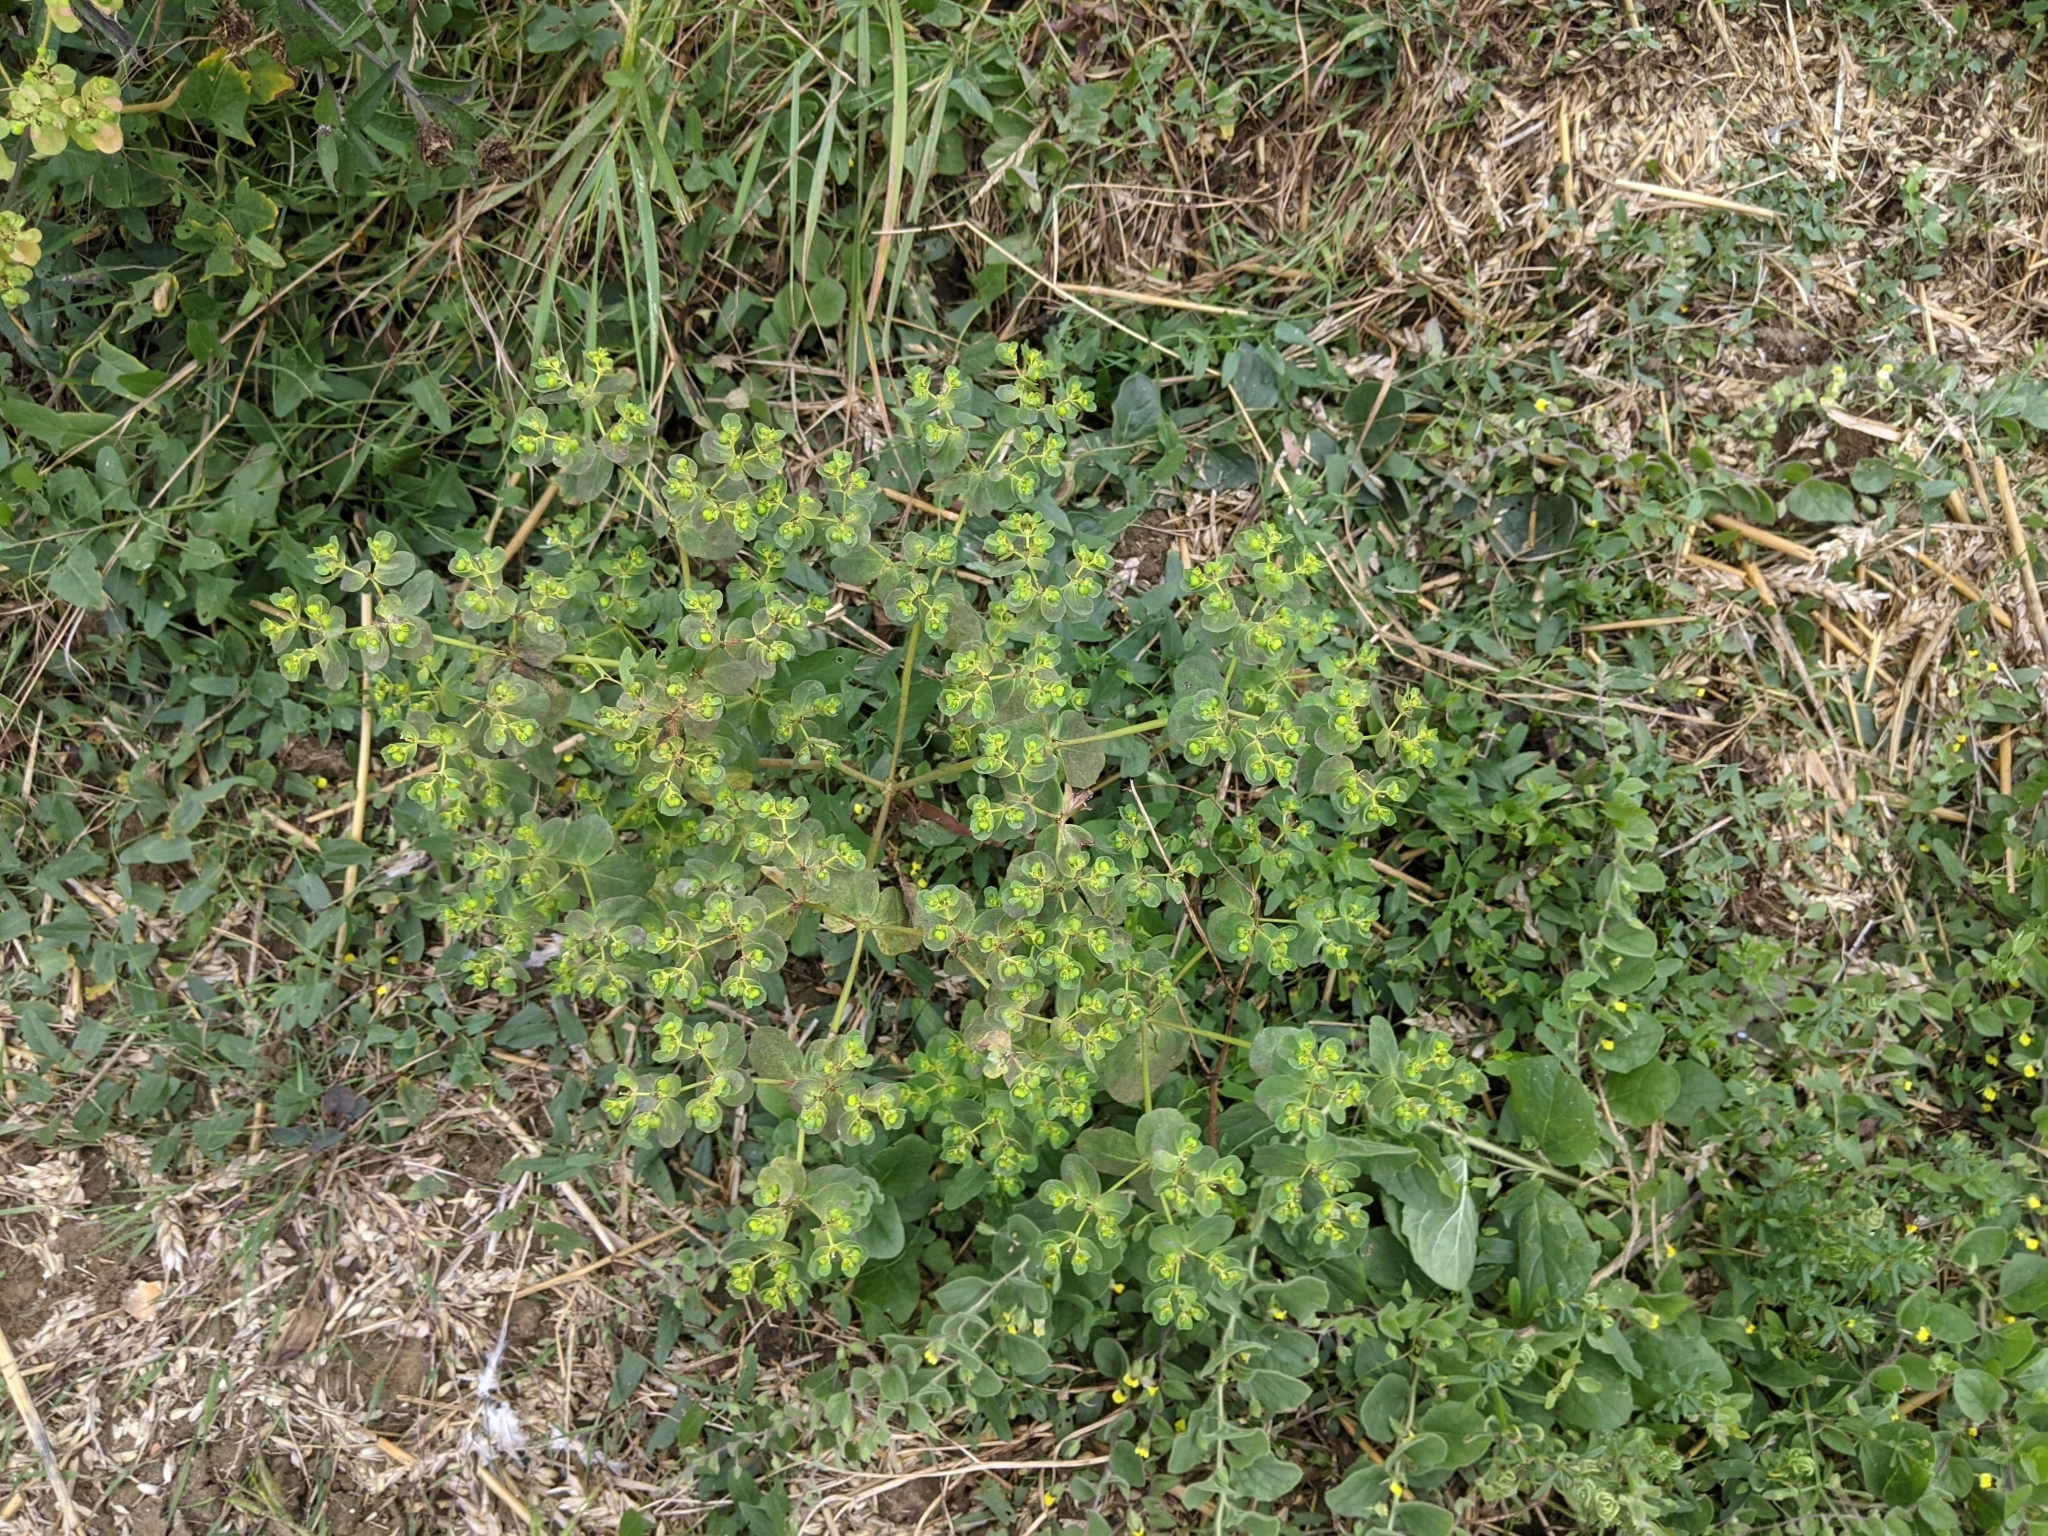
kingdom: Plantae
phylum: Tracheophyta
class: Magnoliopsida
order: Malpighiales
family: Euphorbiaceae
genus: Euphorbia
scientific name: Euphorbia helioscopia
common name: Sun spurge
